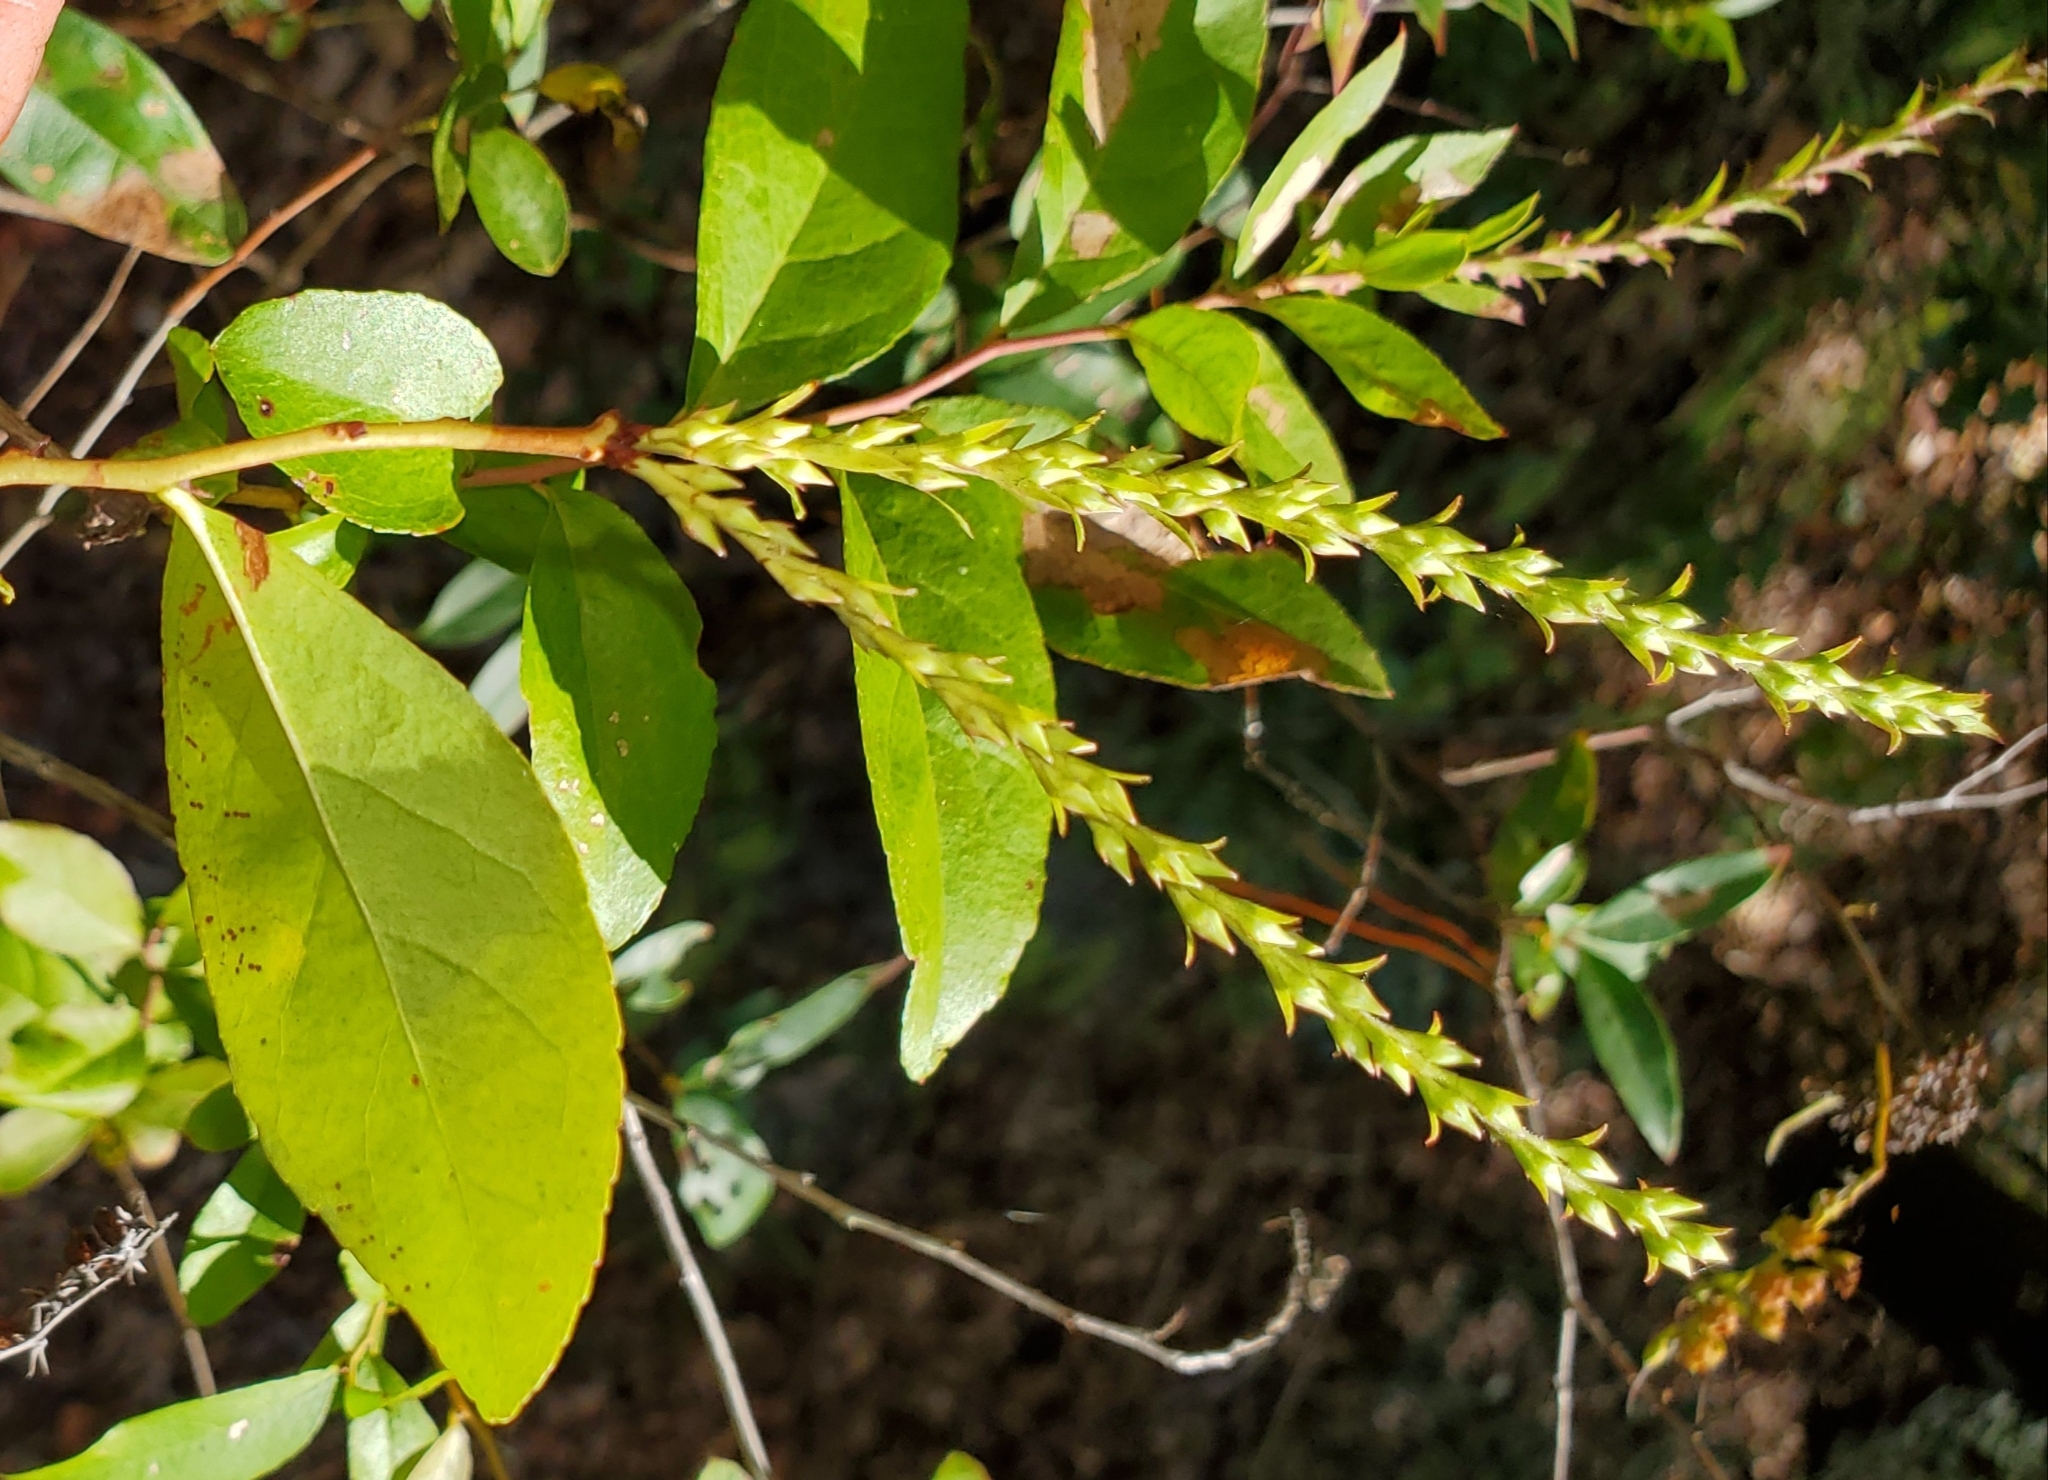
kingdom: Plantae
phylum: Tracheophyta
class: Magnoliopsida
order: Ericales
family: Ericaceae
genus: Eubotrys
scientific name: Eubotrys racemosa
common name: Fetterbush
